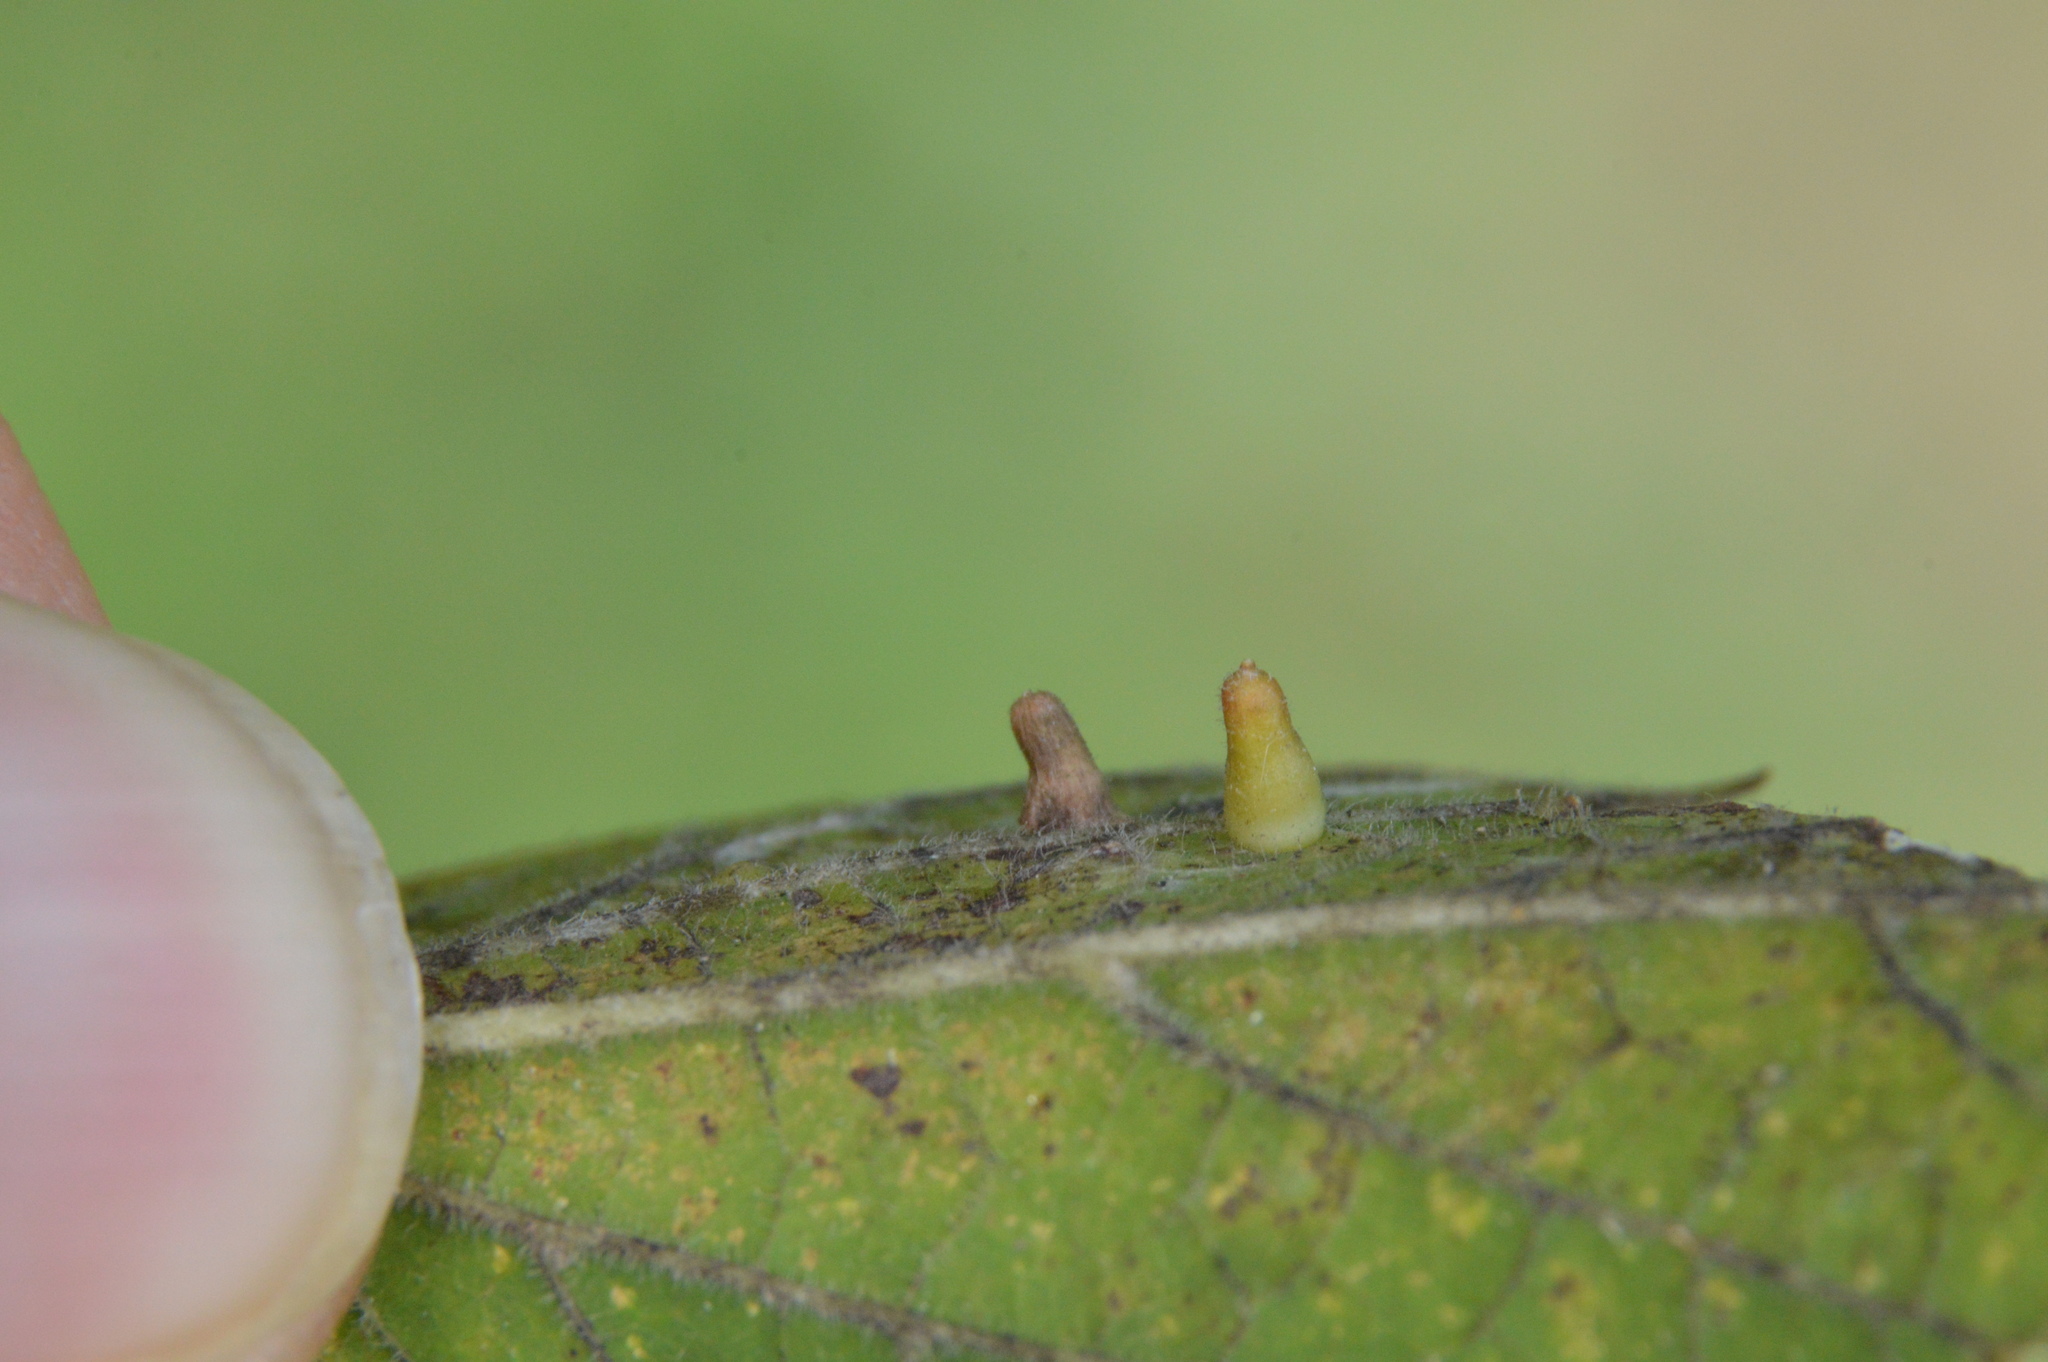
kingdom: Animalia
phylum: Arthropoda
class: Insecta
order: Diptera
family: Cecidomyiidae
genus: Celticecis
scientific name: Celticecis aciculata
